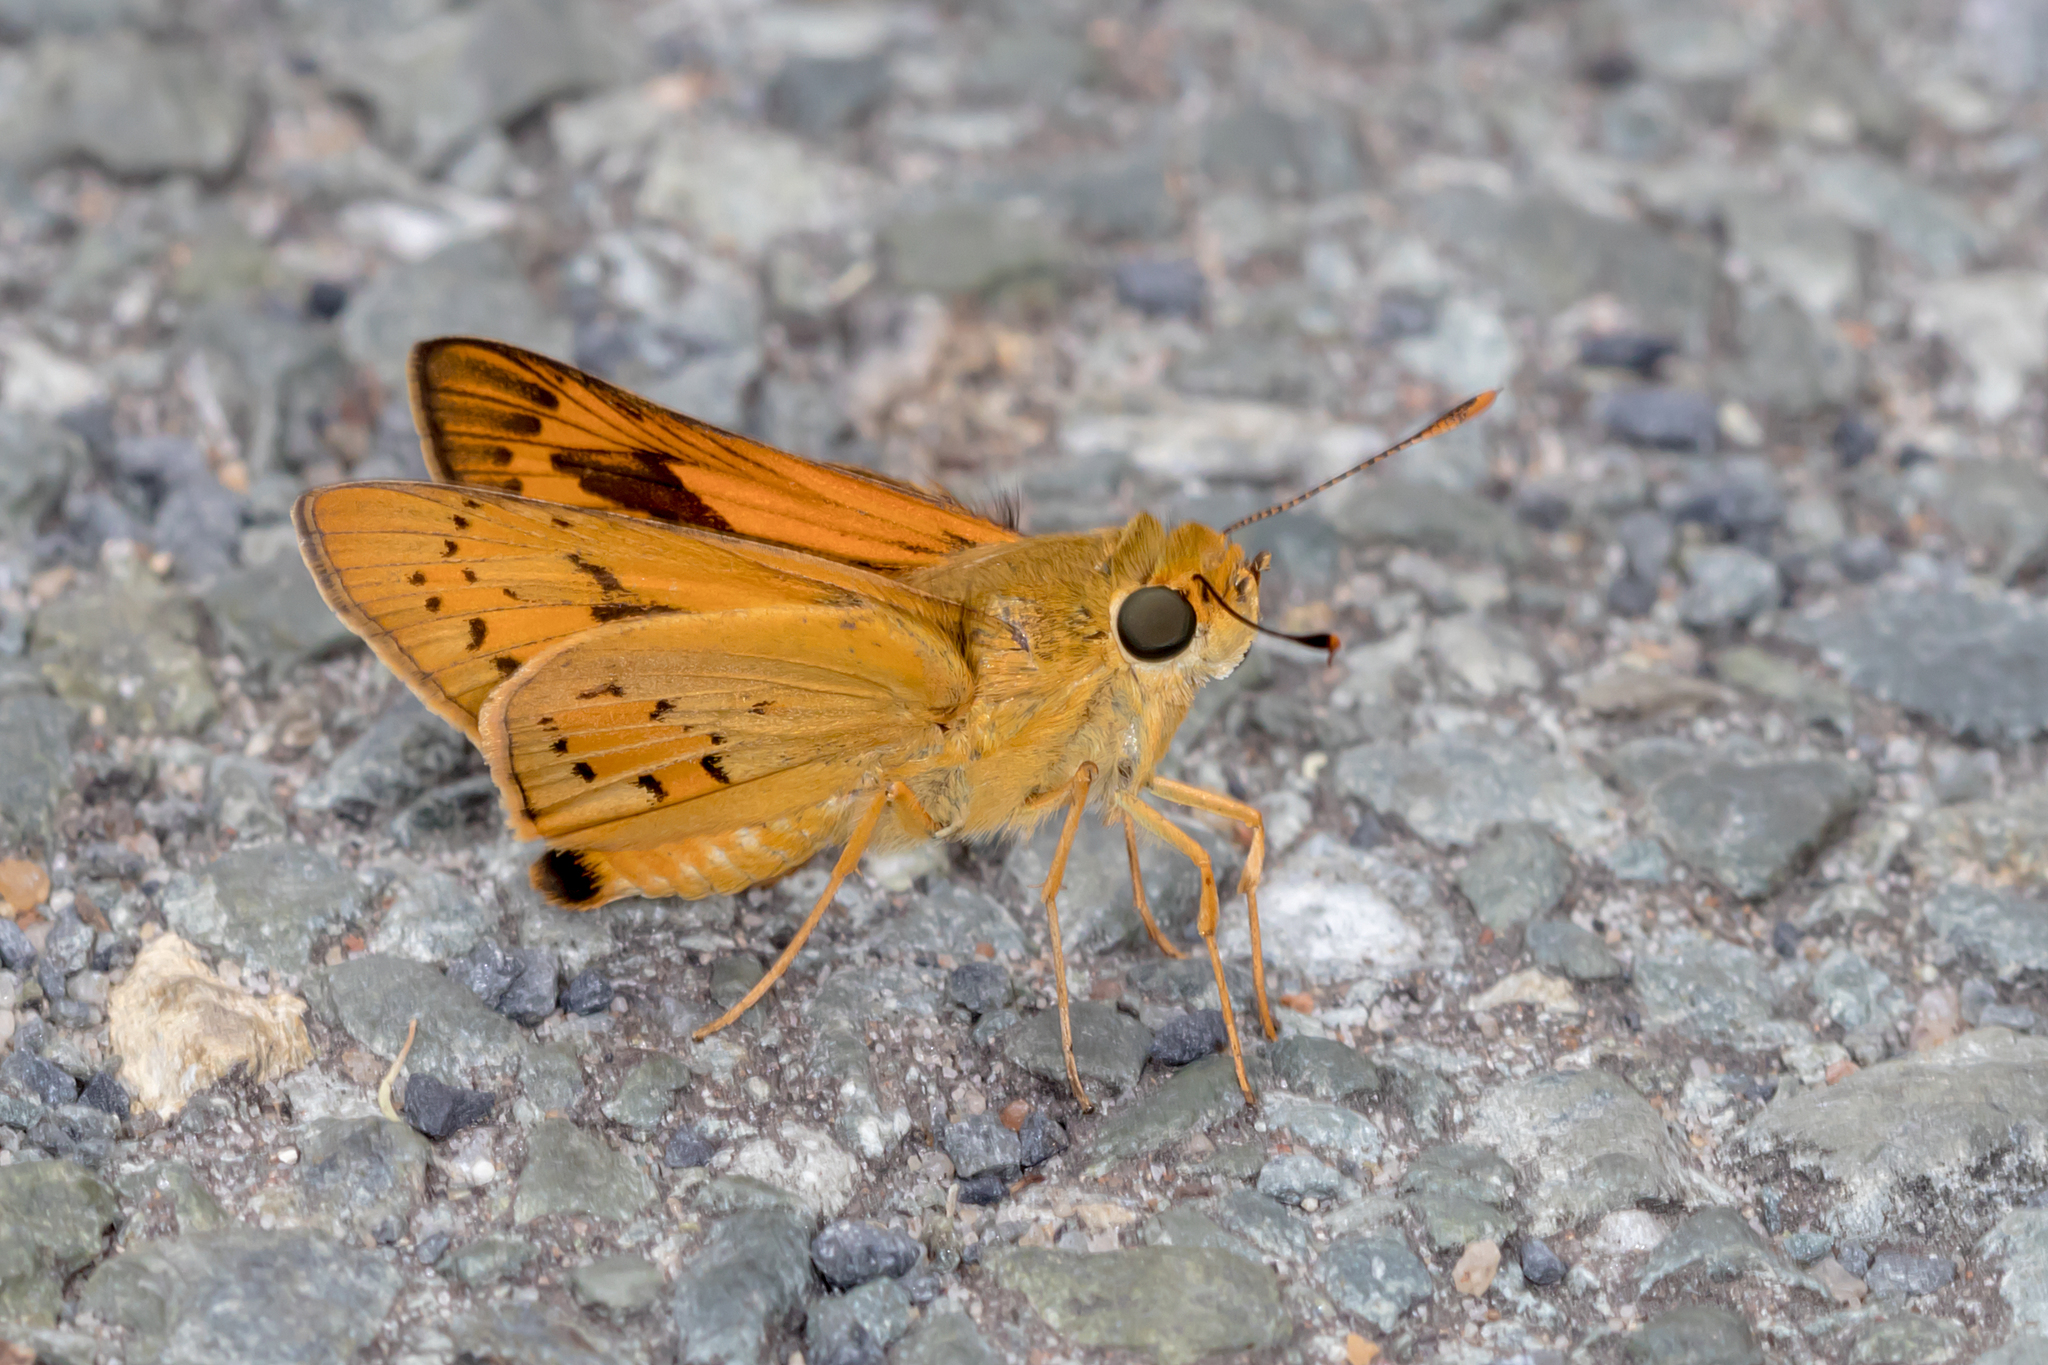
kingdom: Animalia
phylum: Arthropoda
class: Insecta
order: Lepidoptera
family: Hesperiidae
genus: Cephrenes
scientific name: Cephrenes trichopepla
